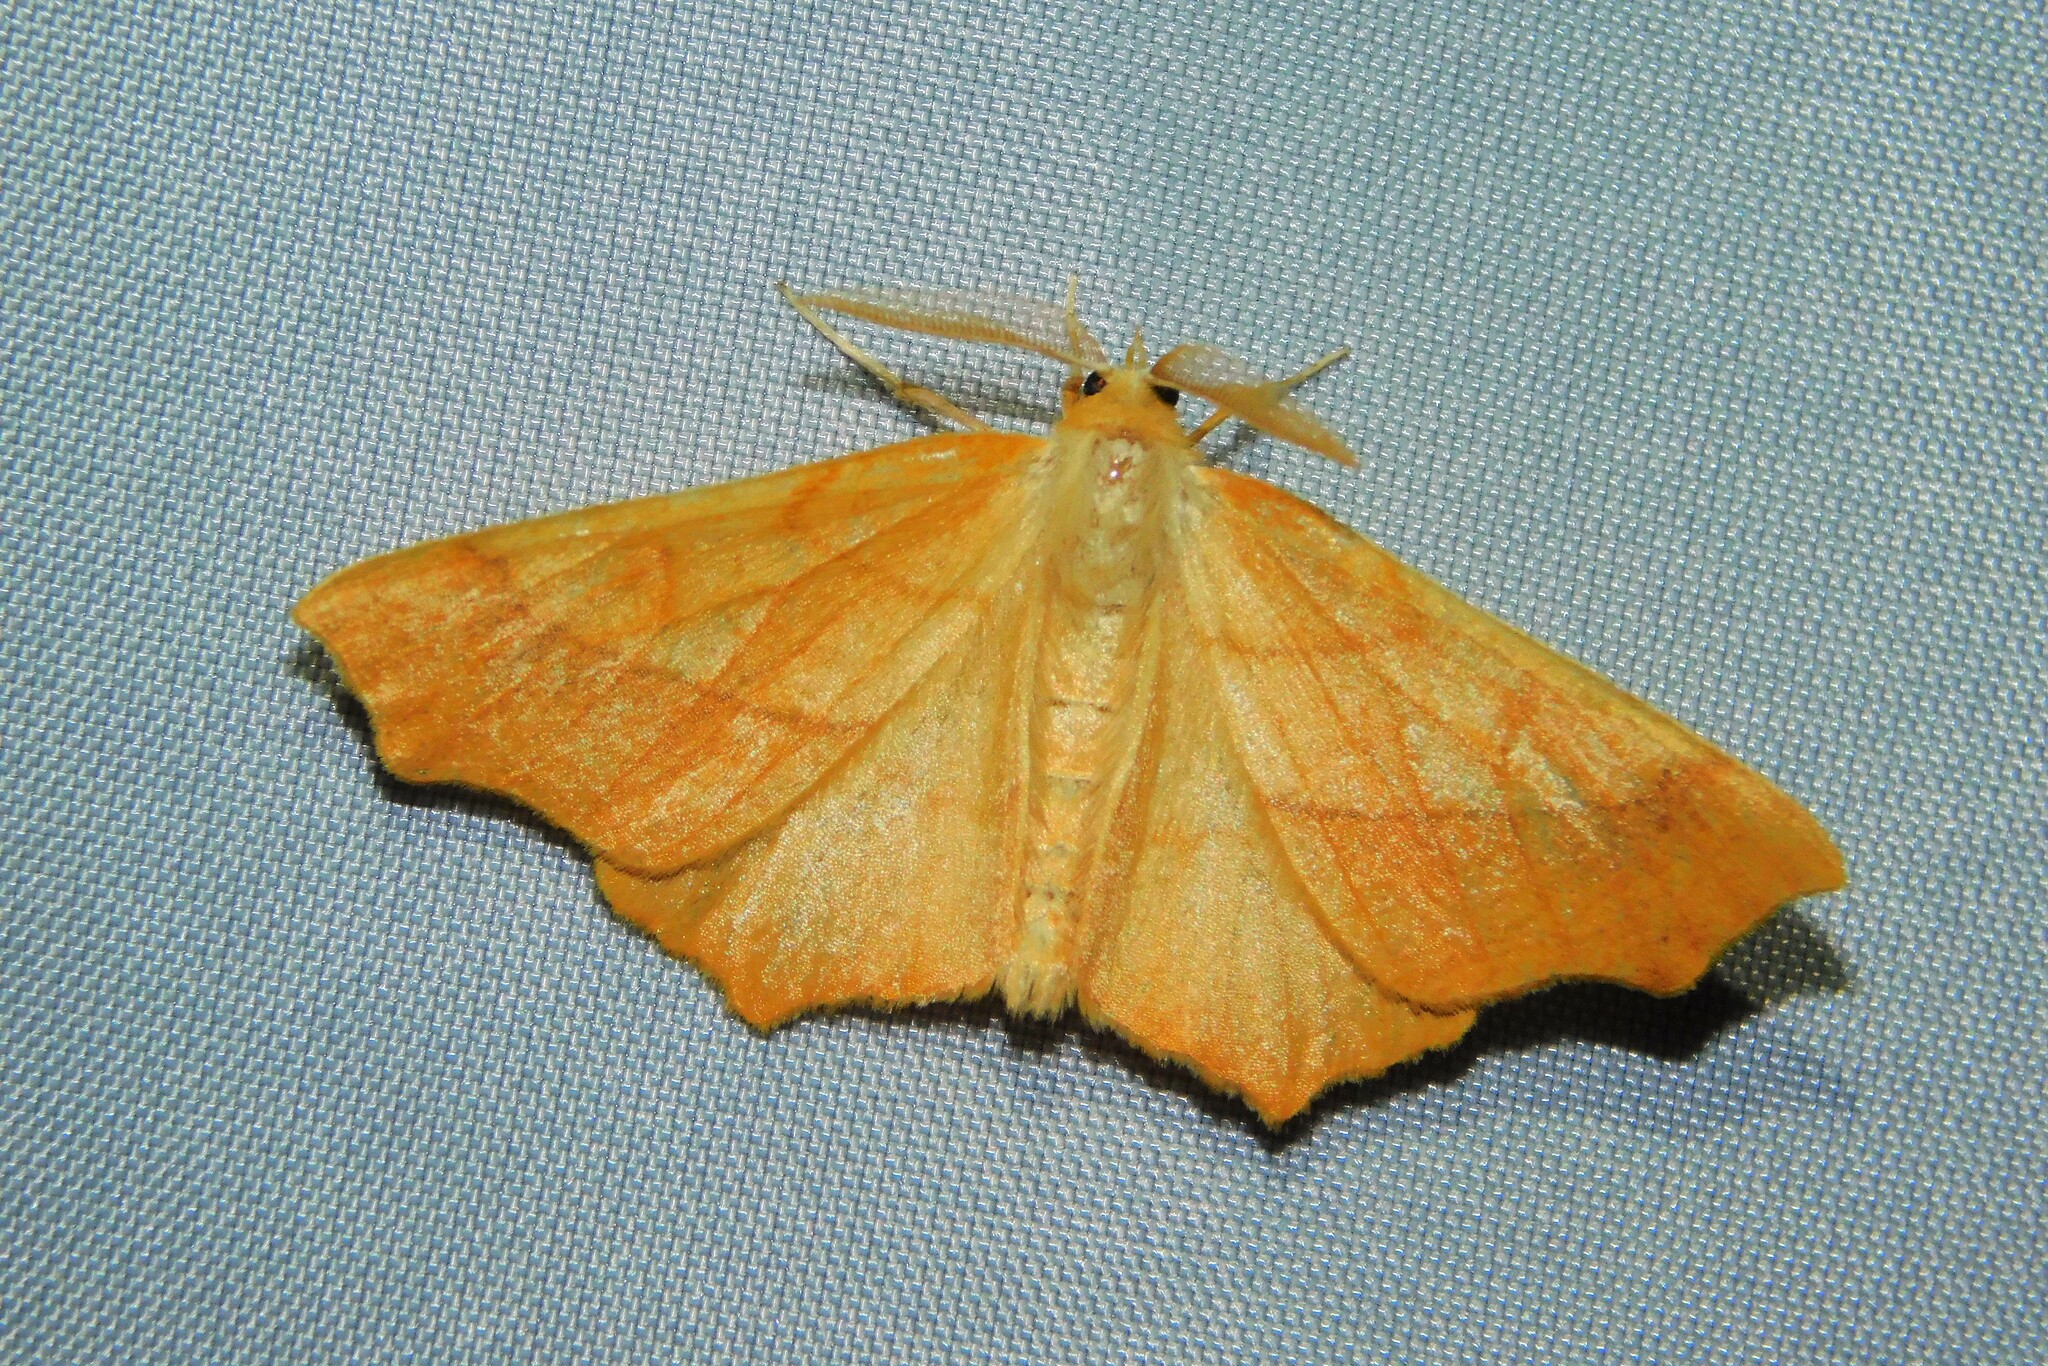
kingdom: Animalia
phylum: Arthropoda
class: Insecta
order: Lepidoptera
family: Geometridae
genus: Ennomos
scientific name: Ennomos quercinaria
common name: August thorn
